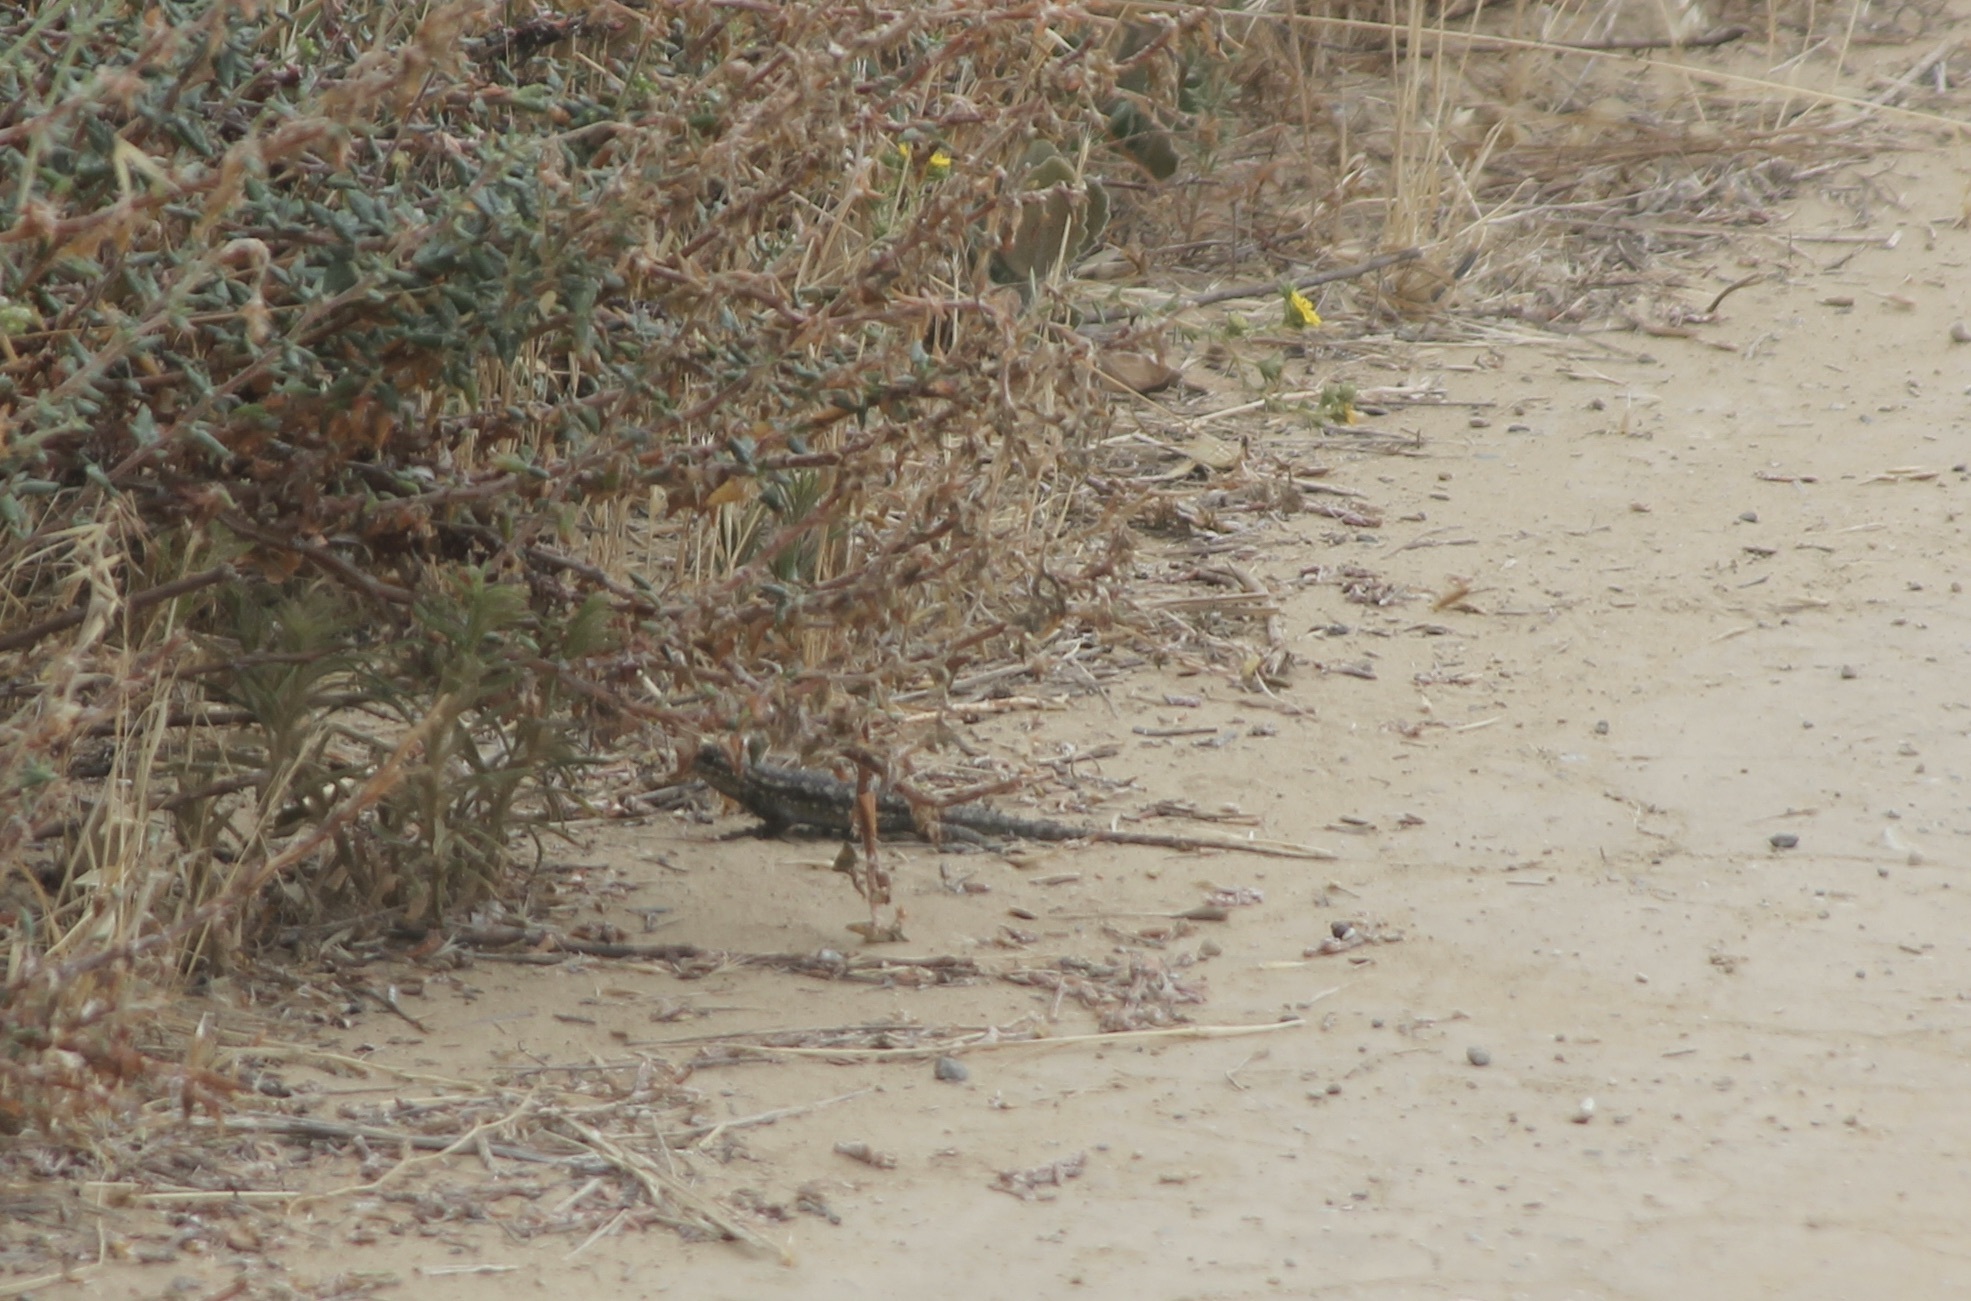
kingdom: Animalia
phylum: Chordata
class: Squamata
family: Phrynosomatidae
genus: Sceloporus
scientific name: Sceloporus occidentalis
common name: Western fence lizard
